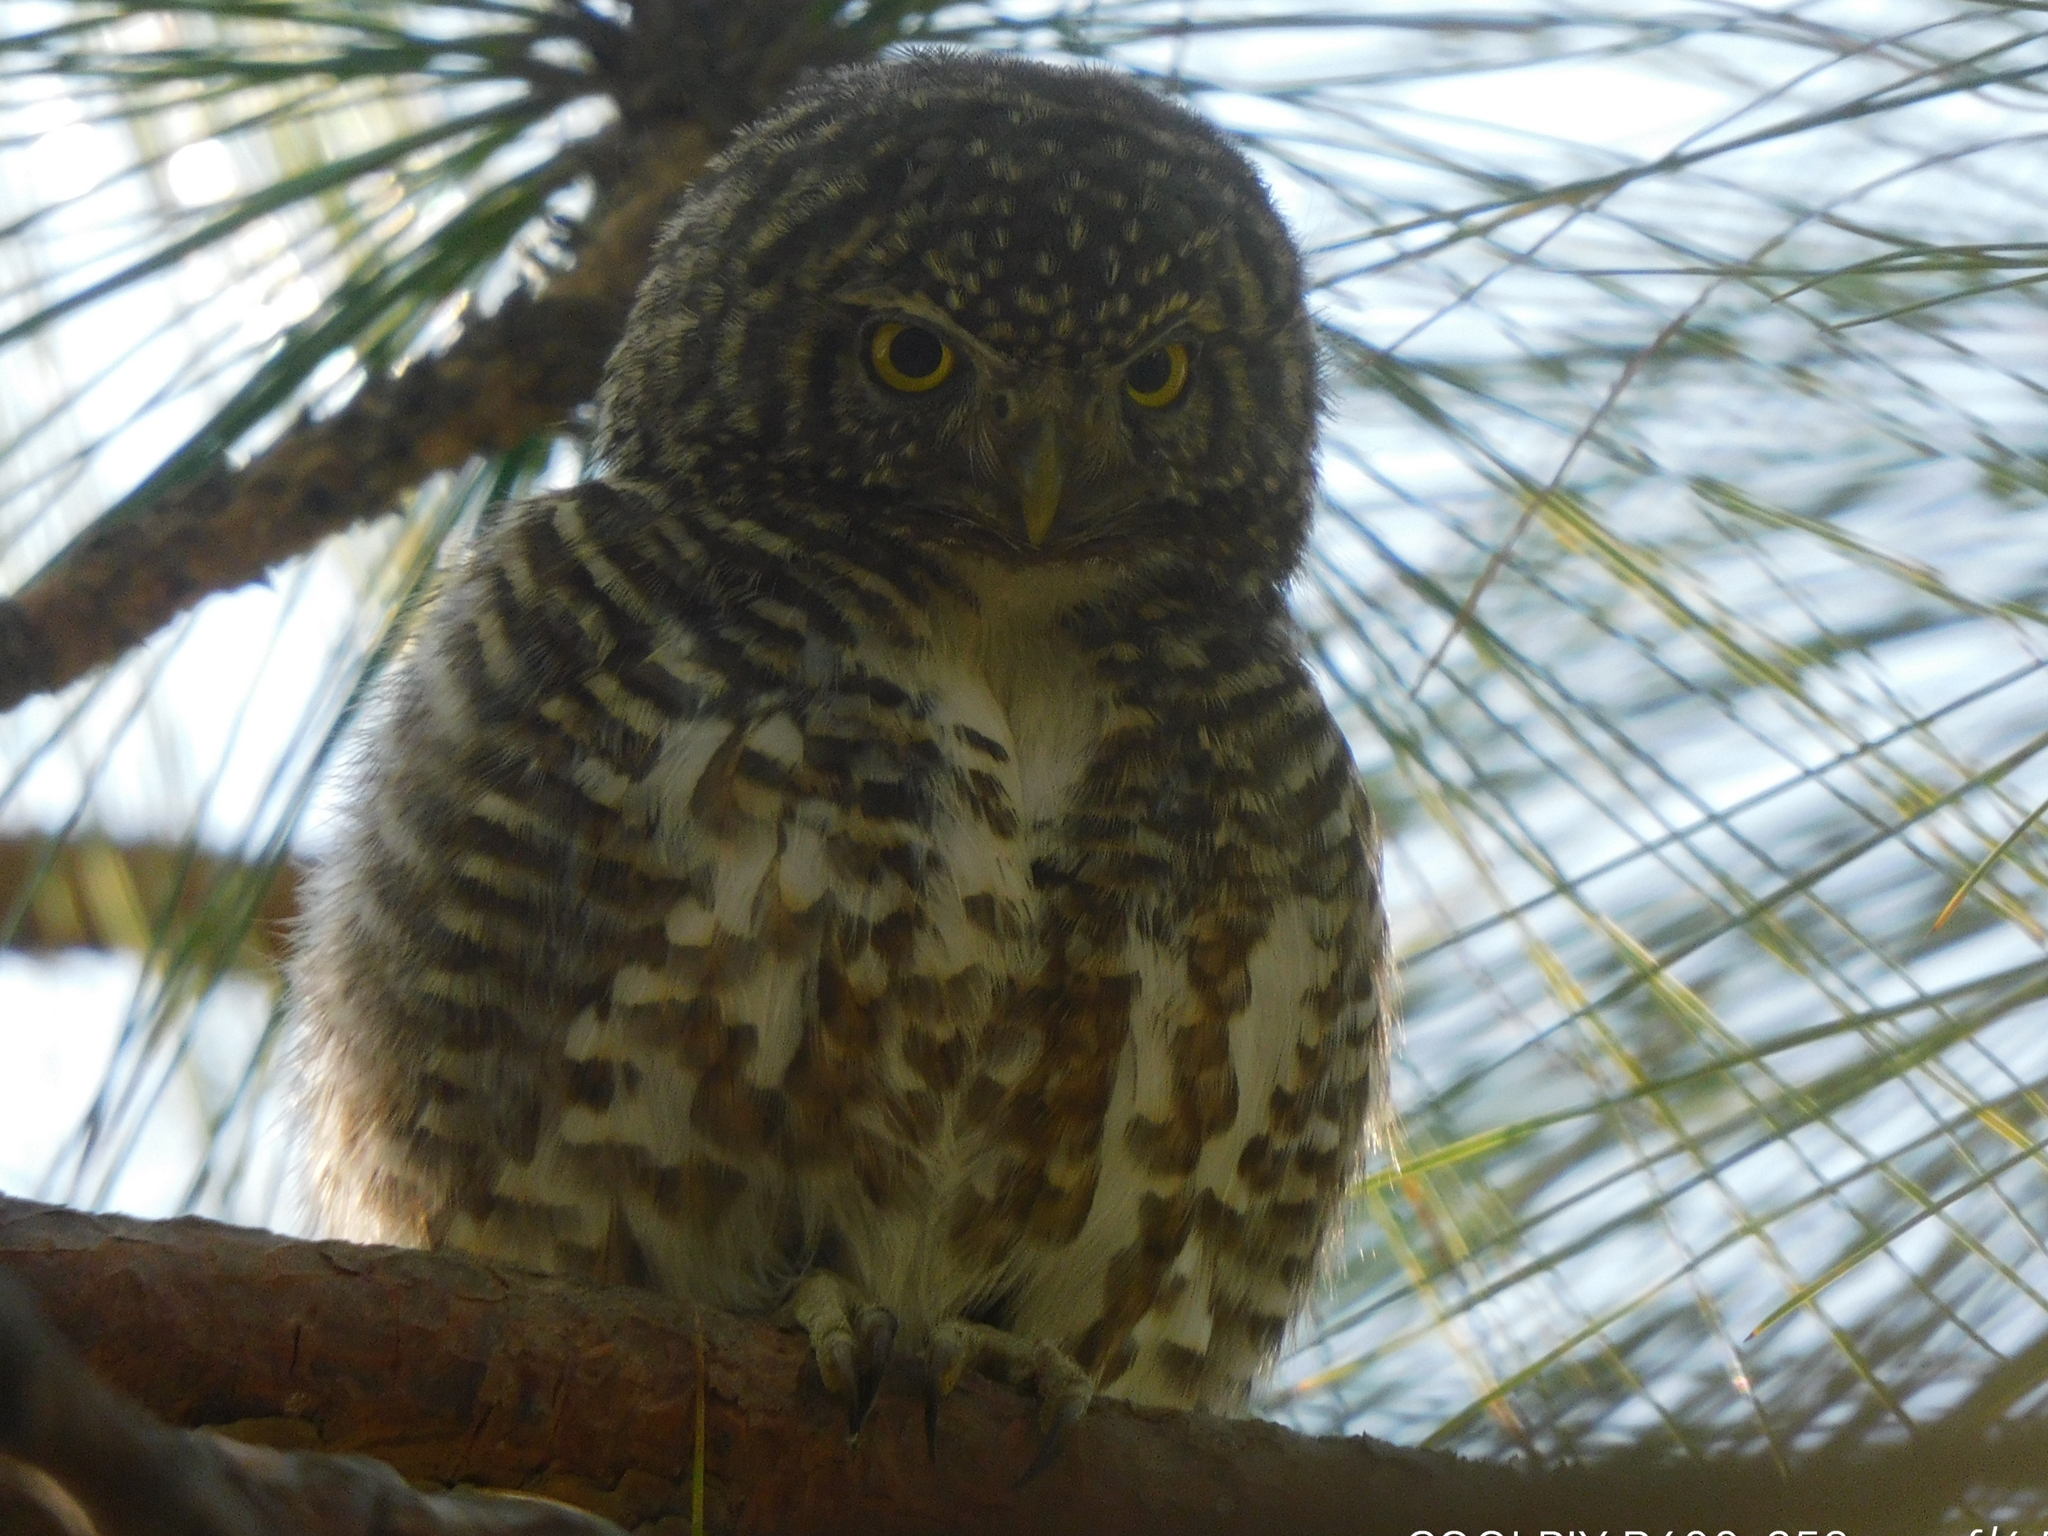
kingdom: Animalia
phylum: Chordata
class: Aves
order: Strigiformes
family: Strigidae
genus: Glaucidium
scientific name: Glaucidium brodiei
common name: Collared owlet
